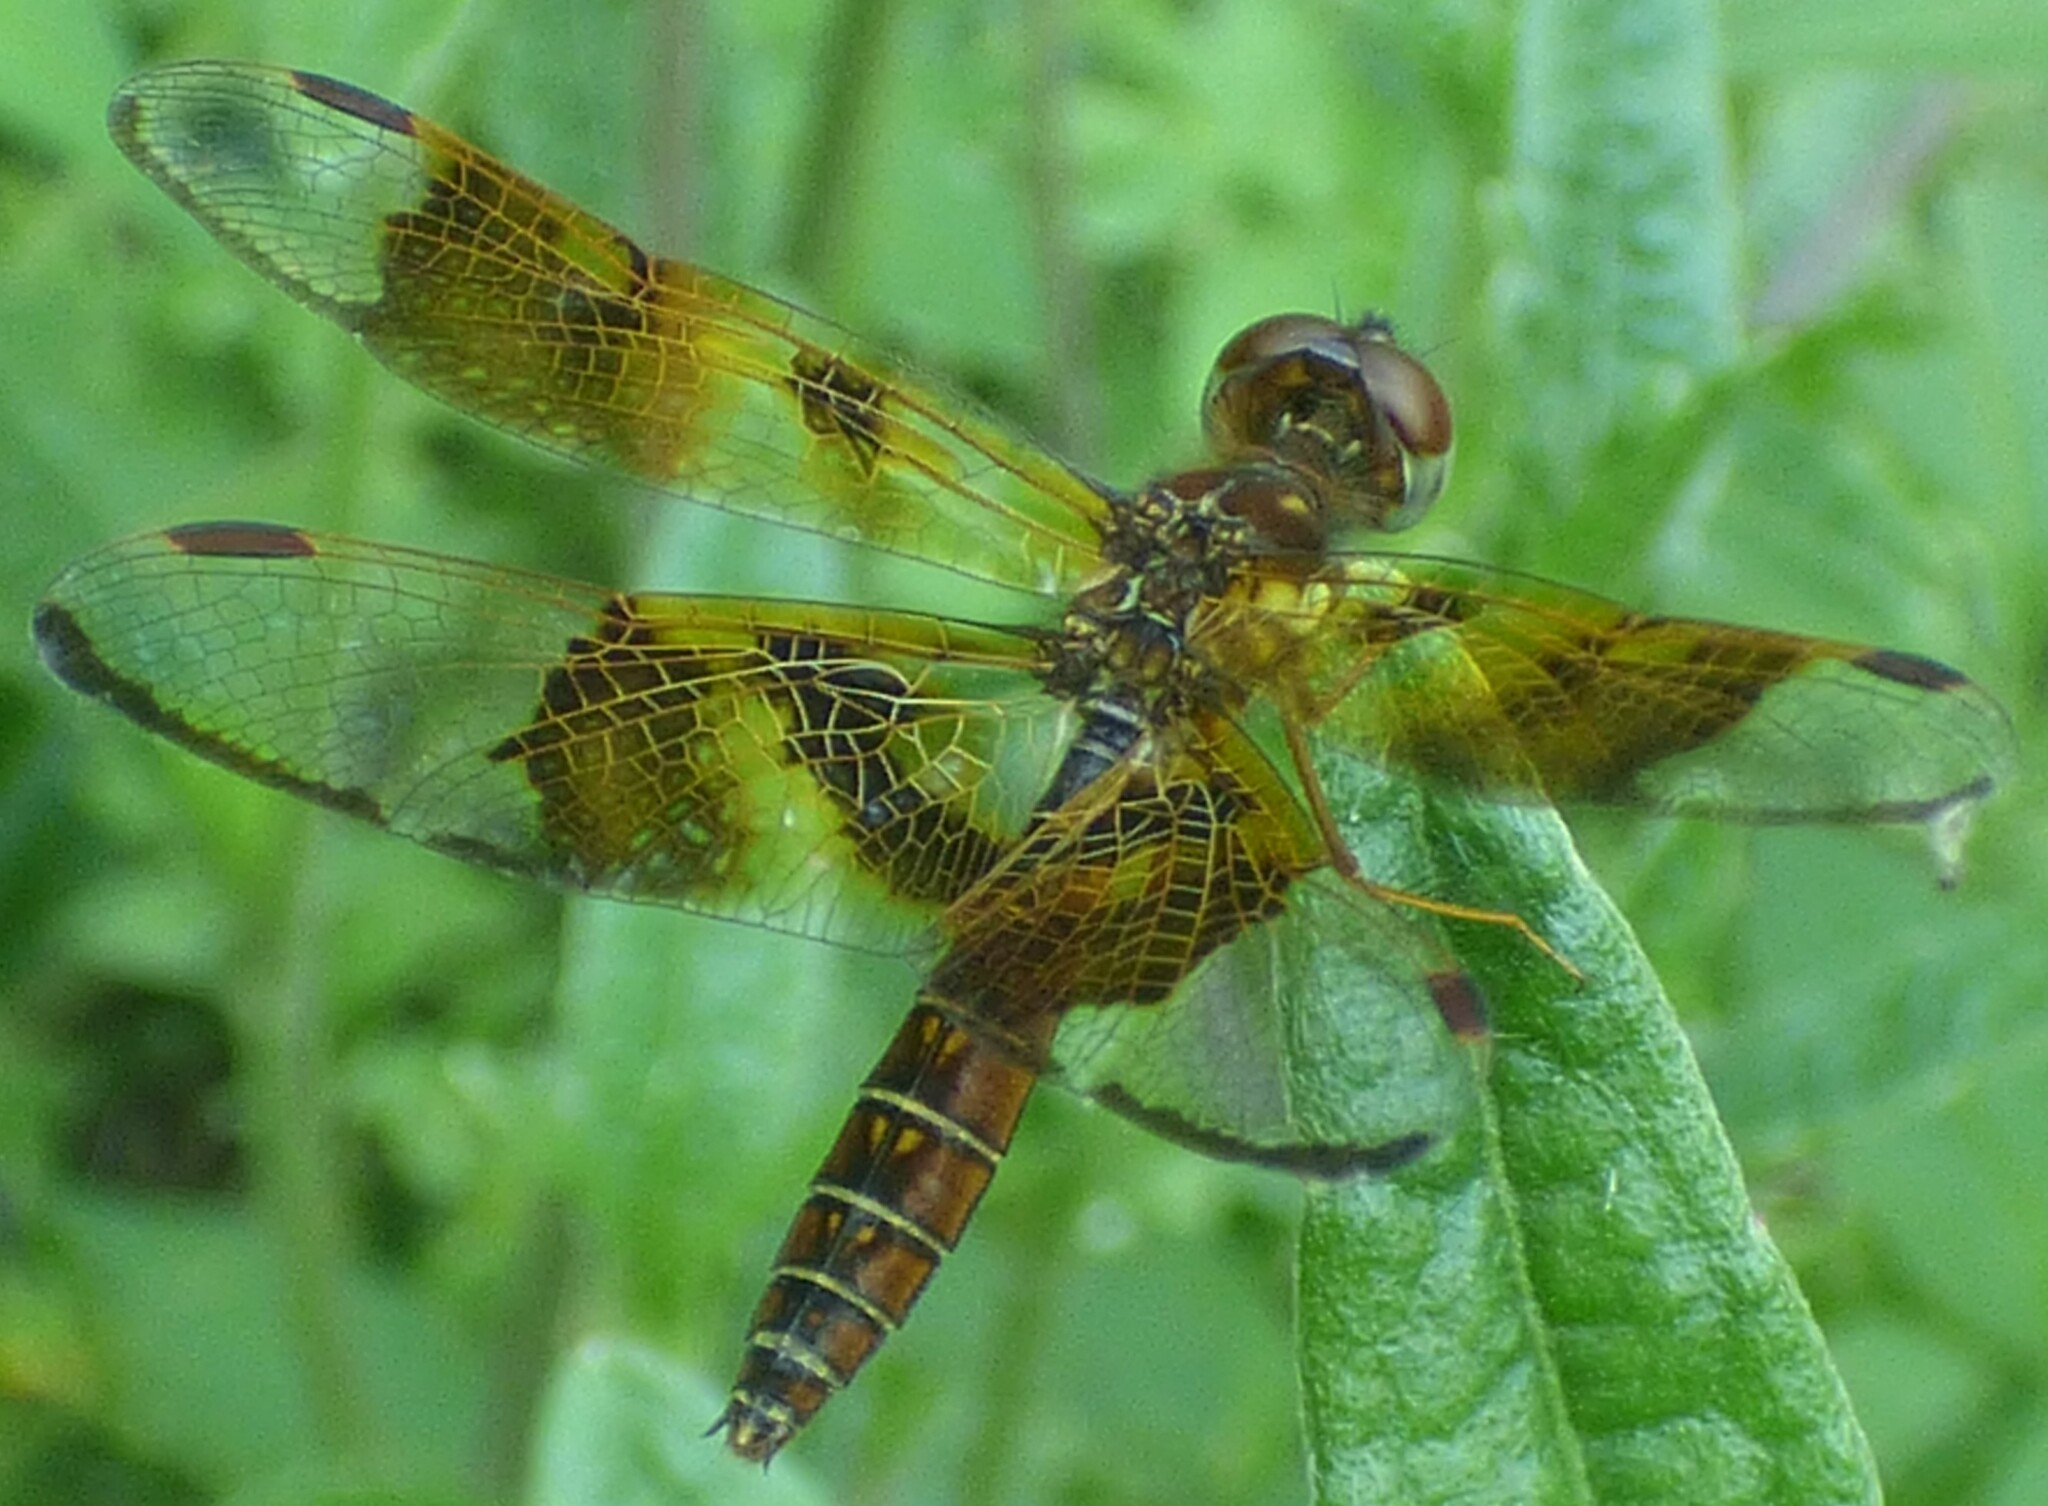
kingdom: Animalia
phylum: Arthropoda
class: Insecta
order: Odonata
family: Libellulidae
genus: Perithemis
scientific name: Perithemis tenera
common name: Eastern amberwing
